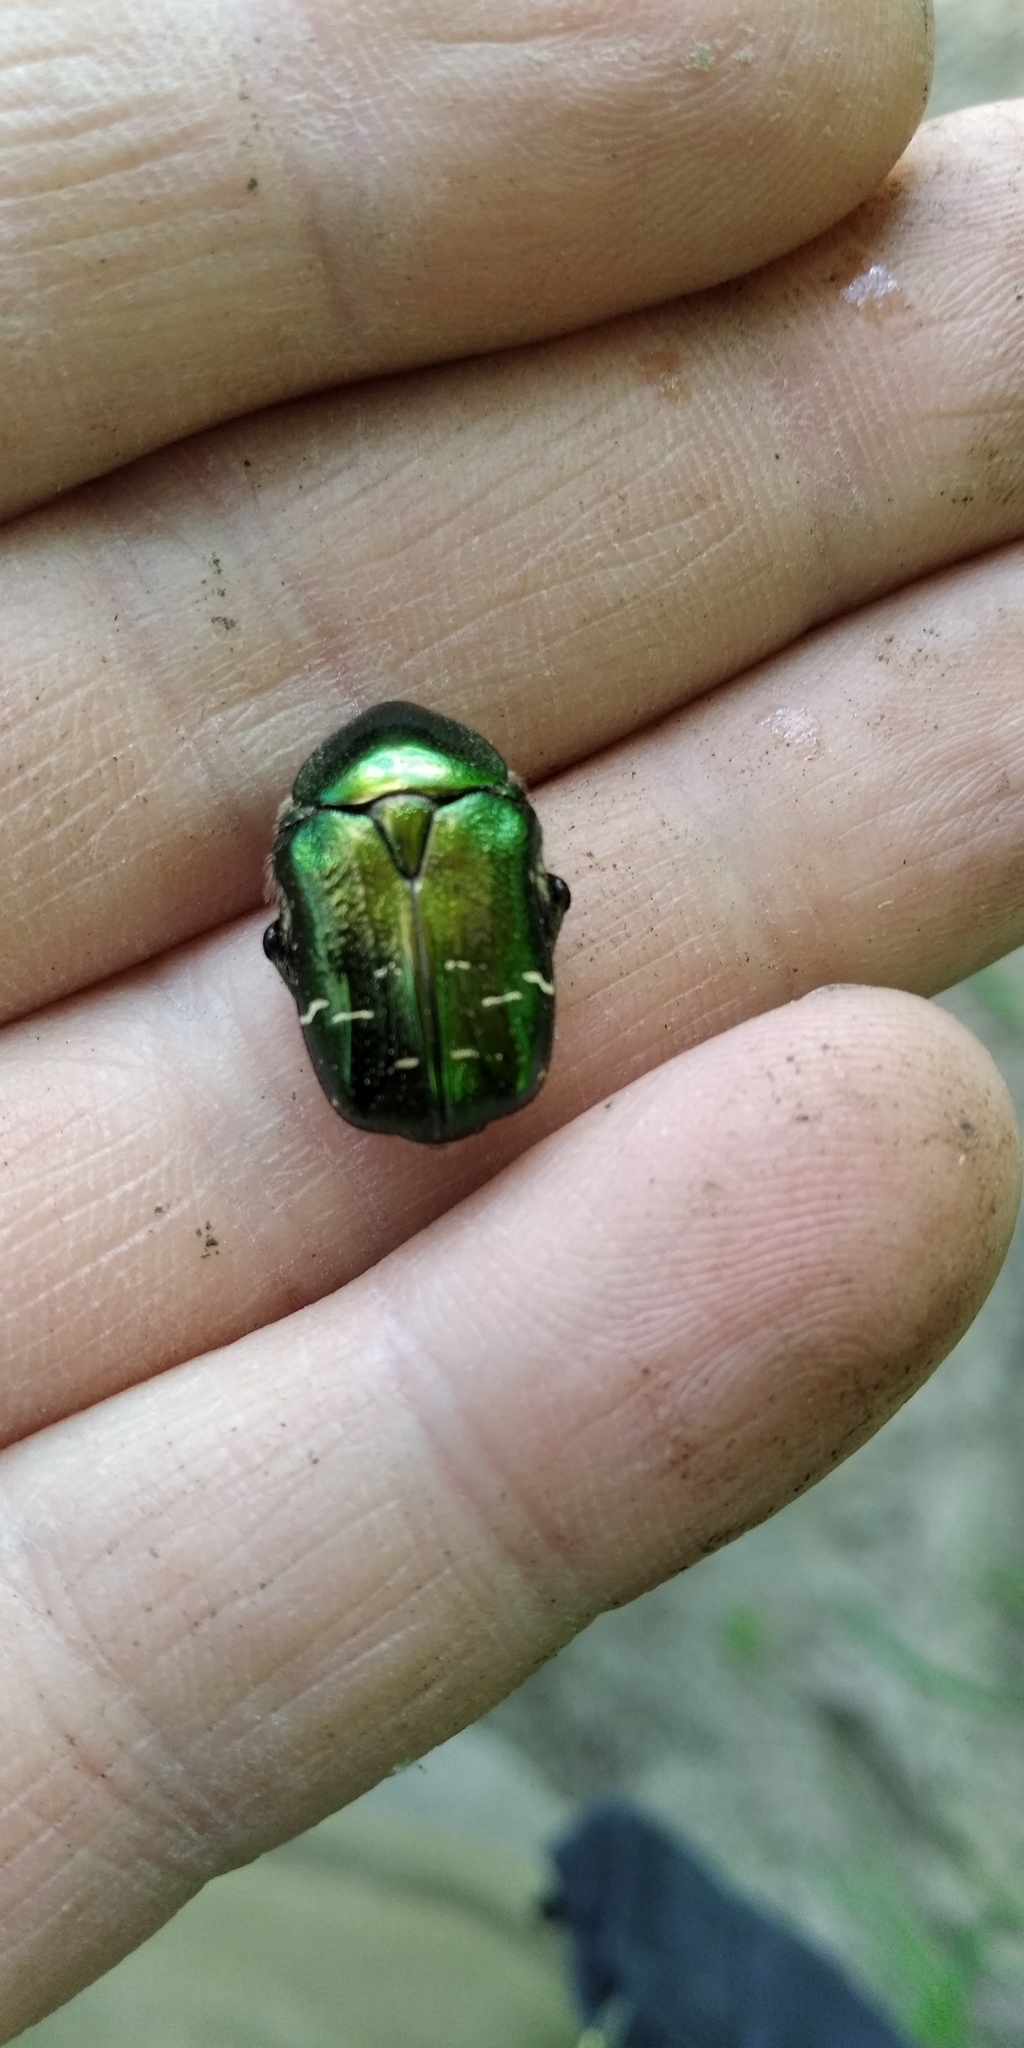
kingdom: Animalia
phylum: Arthropoda
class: Insecta
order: Coleoptera
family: Scarabaeidae
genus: Cetonia
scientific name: Cetonia aurata
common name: Rose chafer
